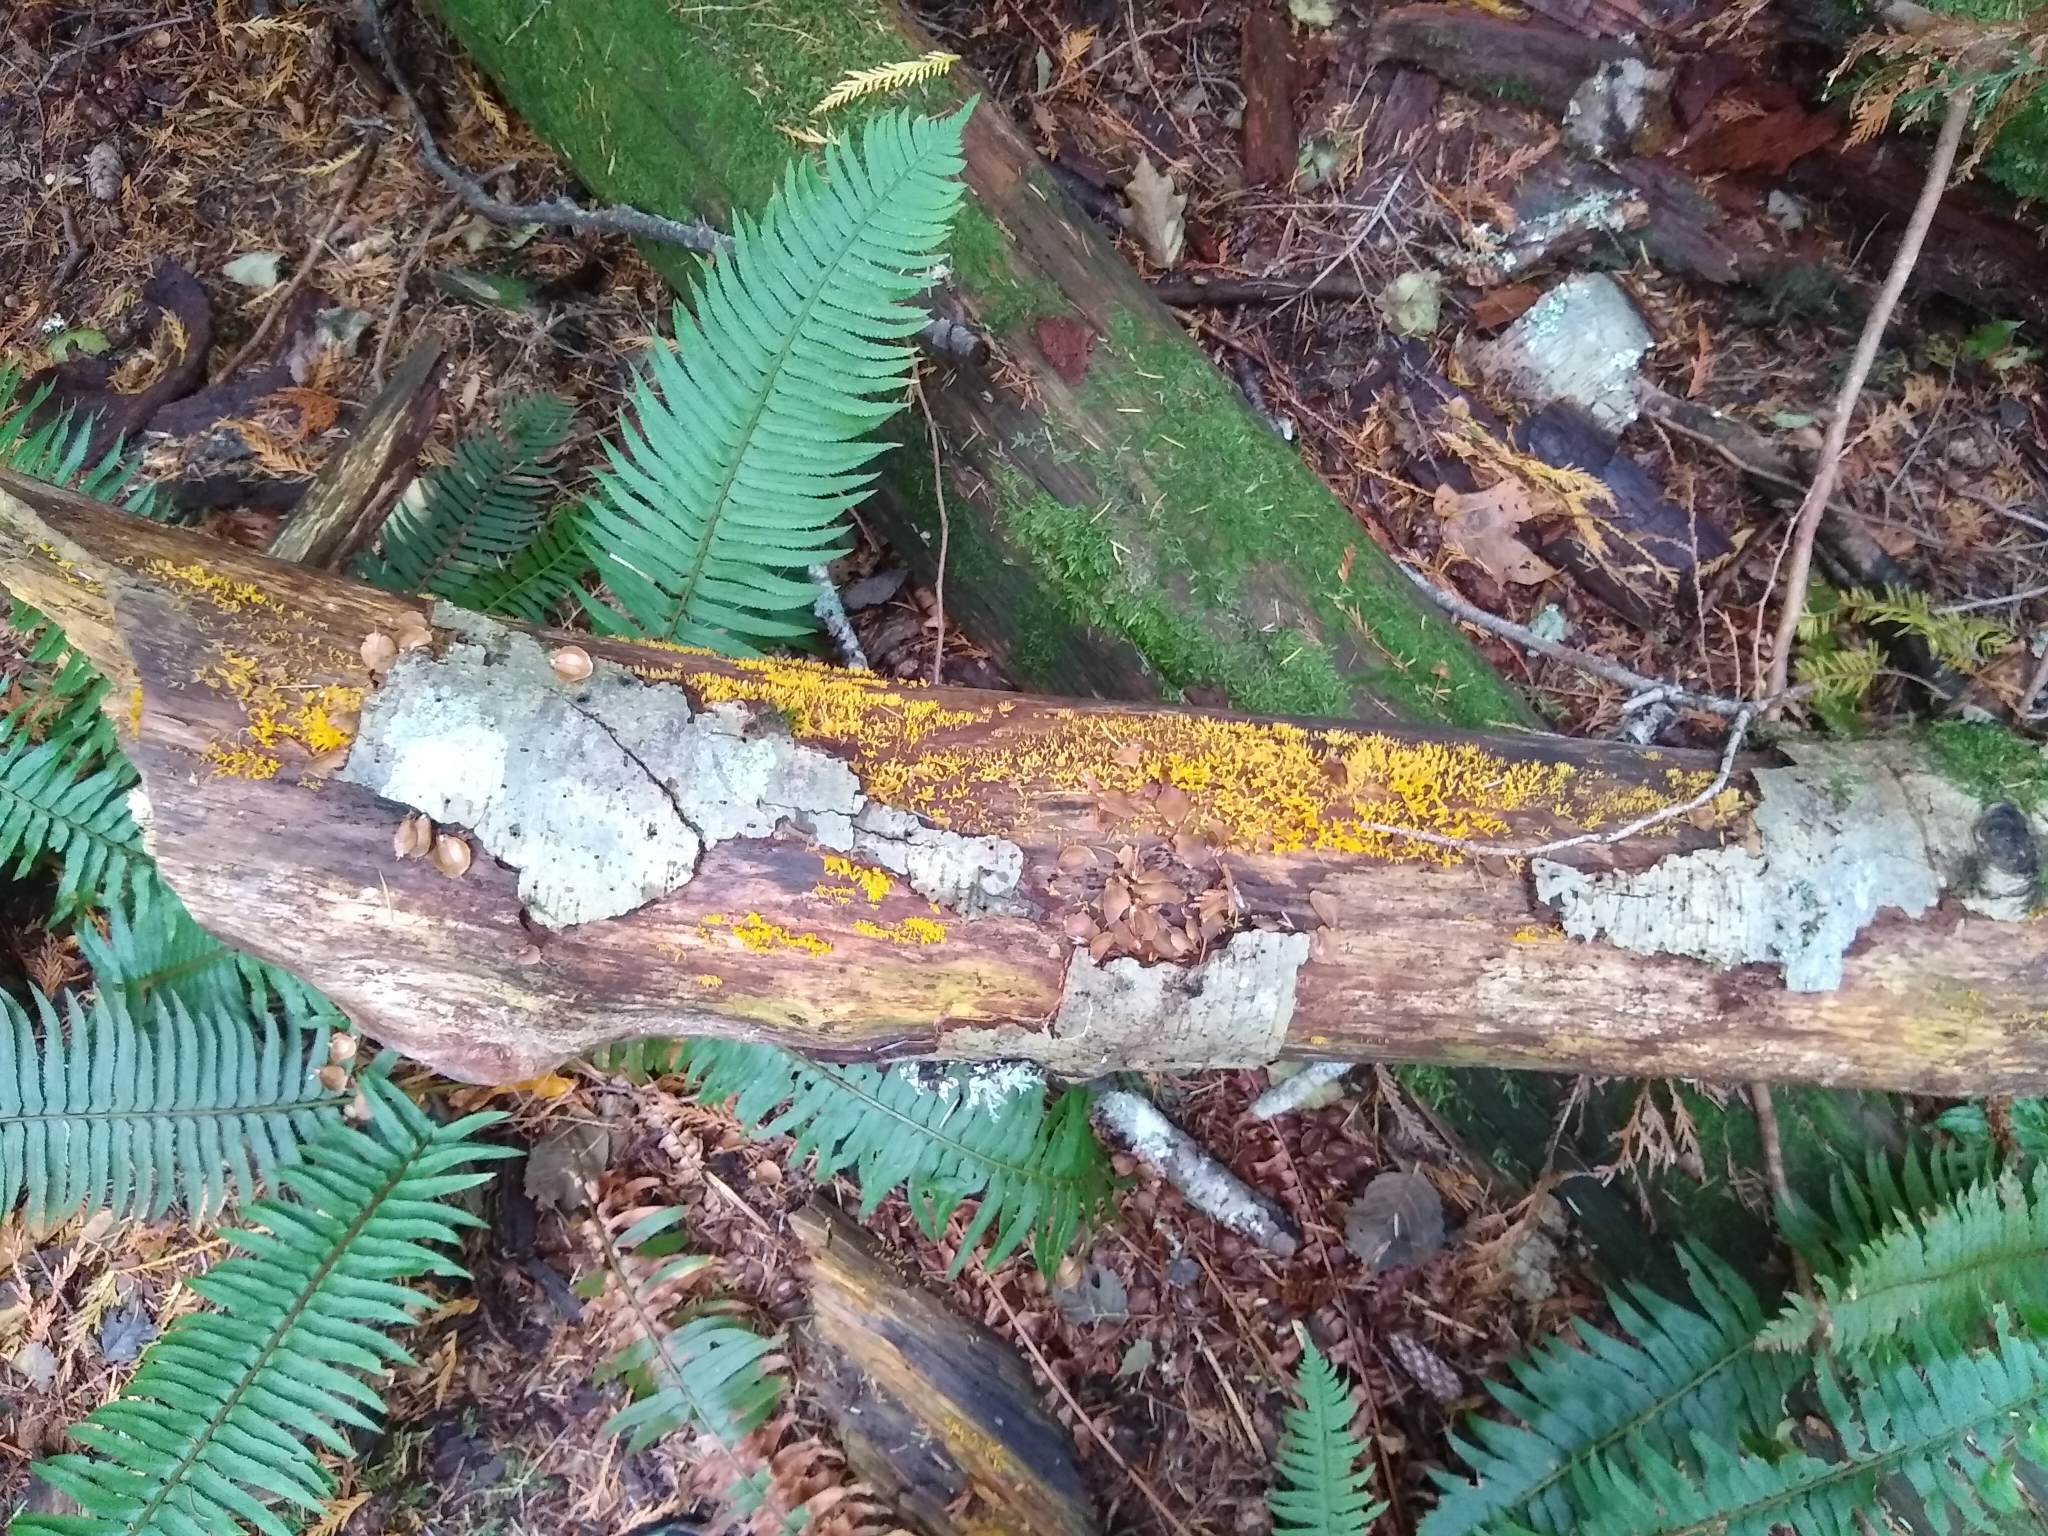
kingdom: Fungi
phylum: Basidiomycota
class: Dacrymycetes
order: Dacrymycetales
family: Dacrymycetaceae
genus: Calocera
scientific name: Calocera cornea
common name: Small stagshorn
